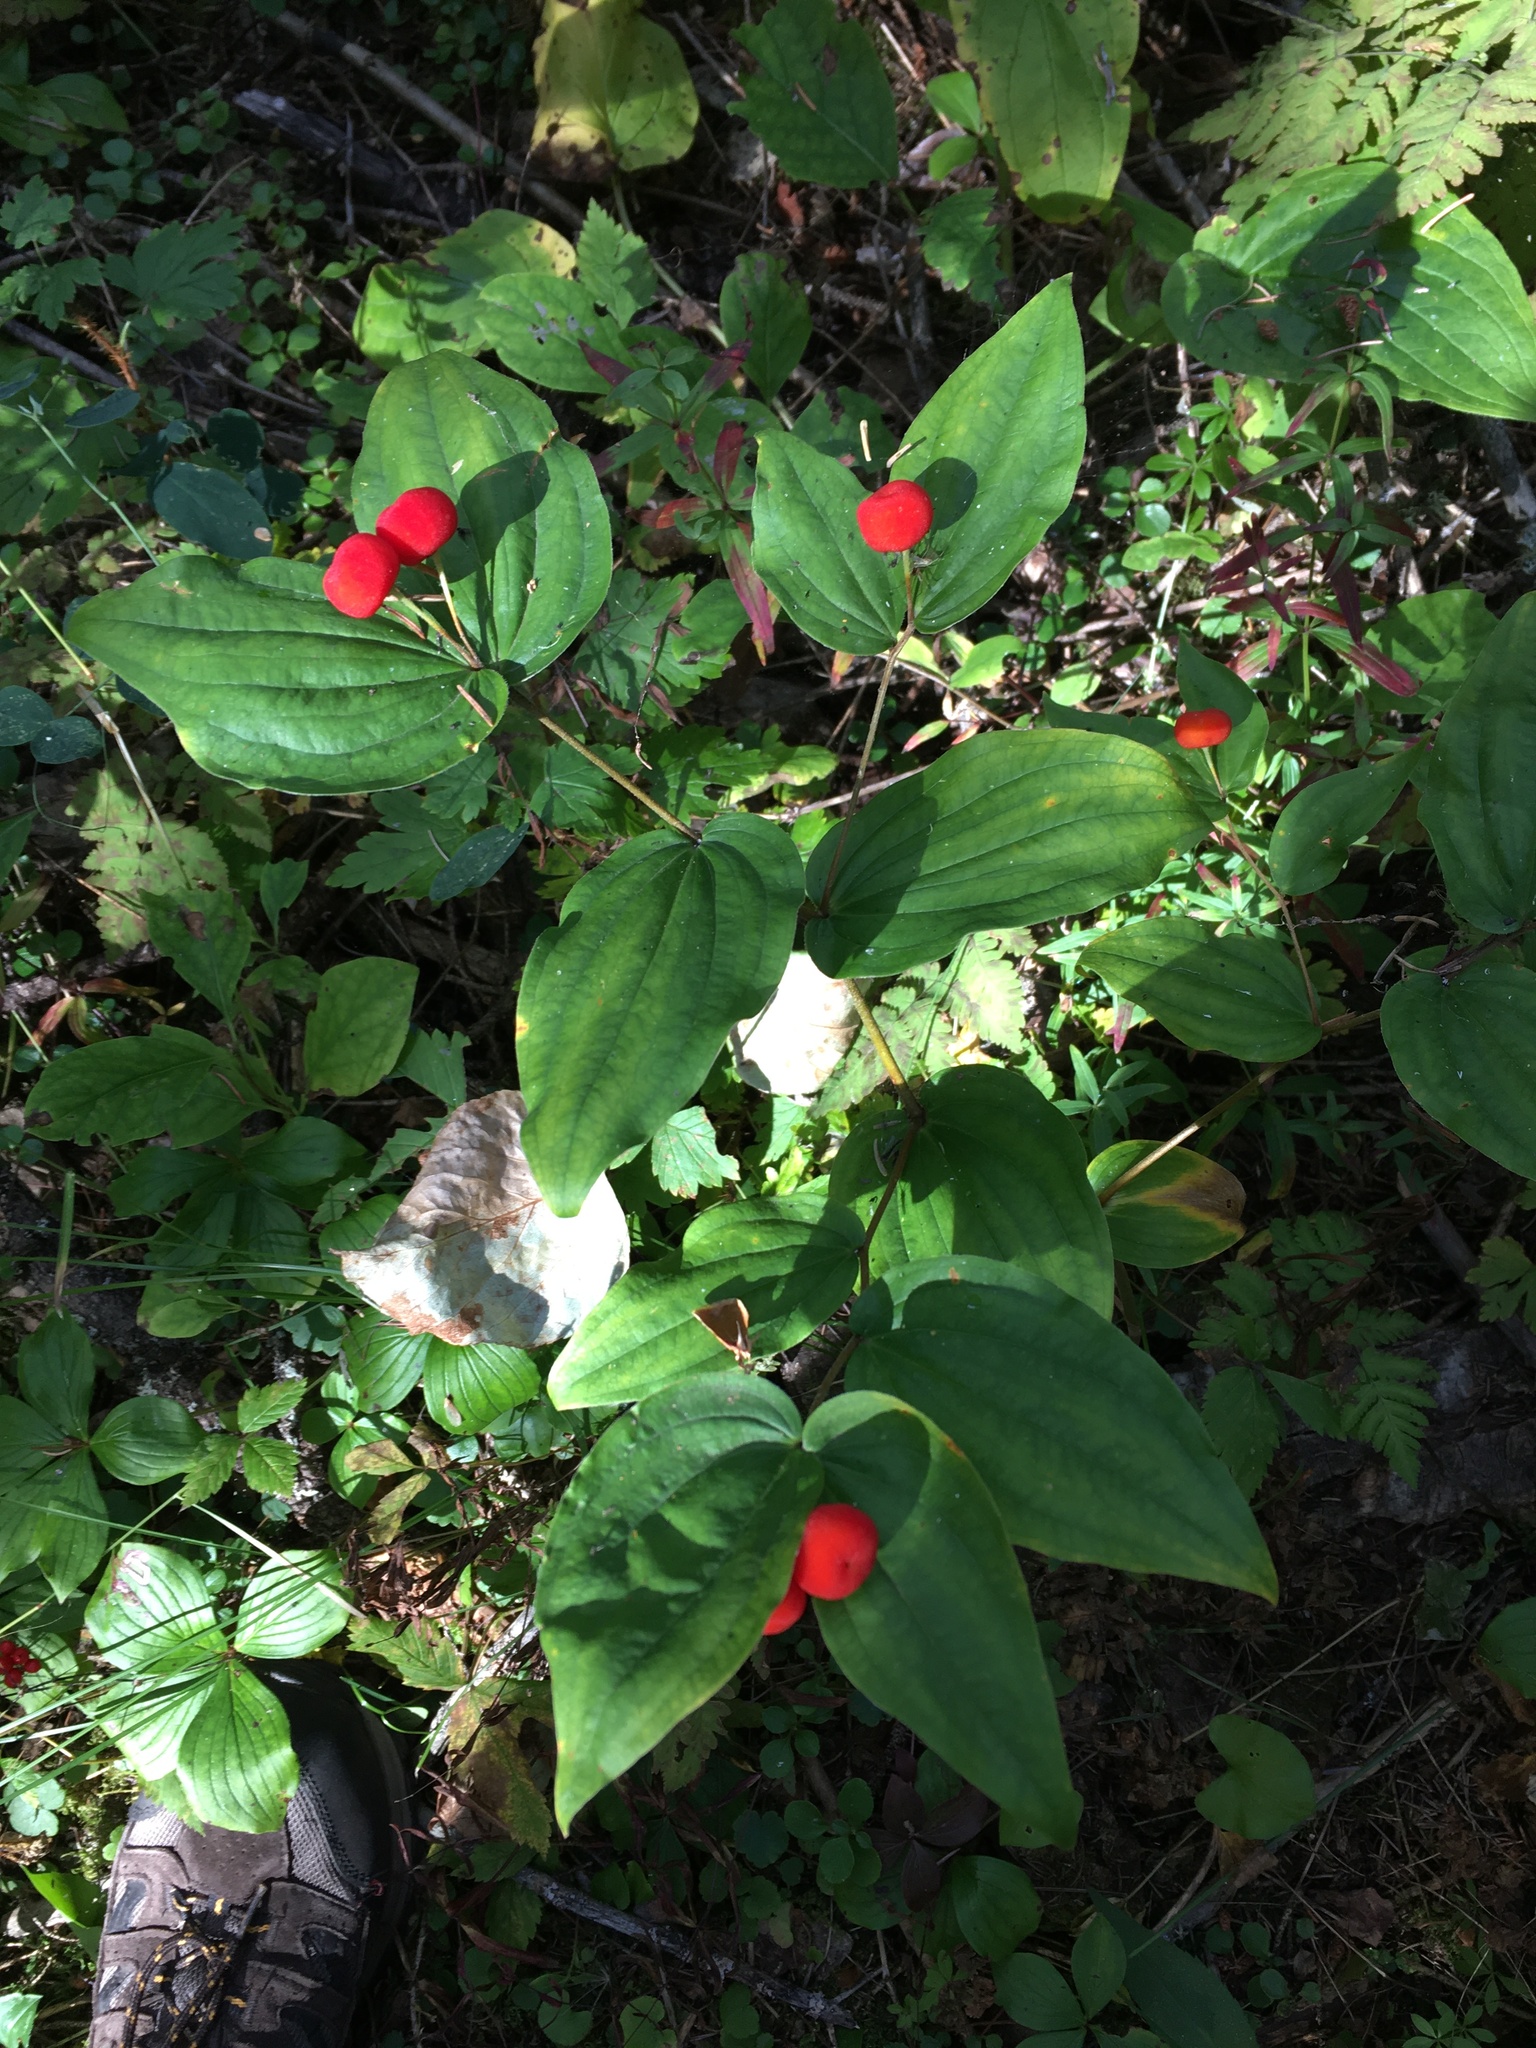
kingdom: Plantae
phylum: Tracheophyta
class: Liliopsida
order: Liliales
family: Liliaceae
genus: Prosartes
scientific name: Prosartes trachycarpa
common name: Rough-fruit fairy-bells
